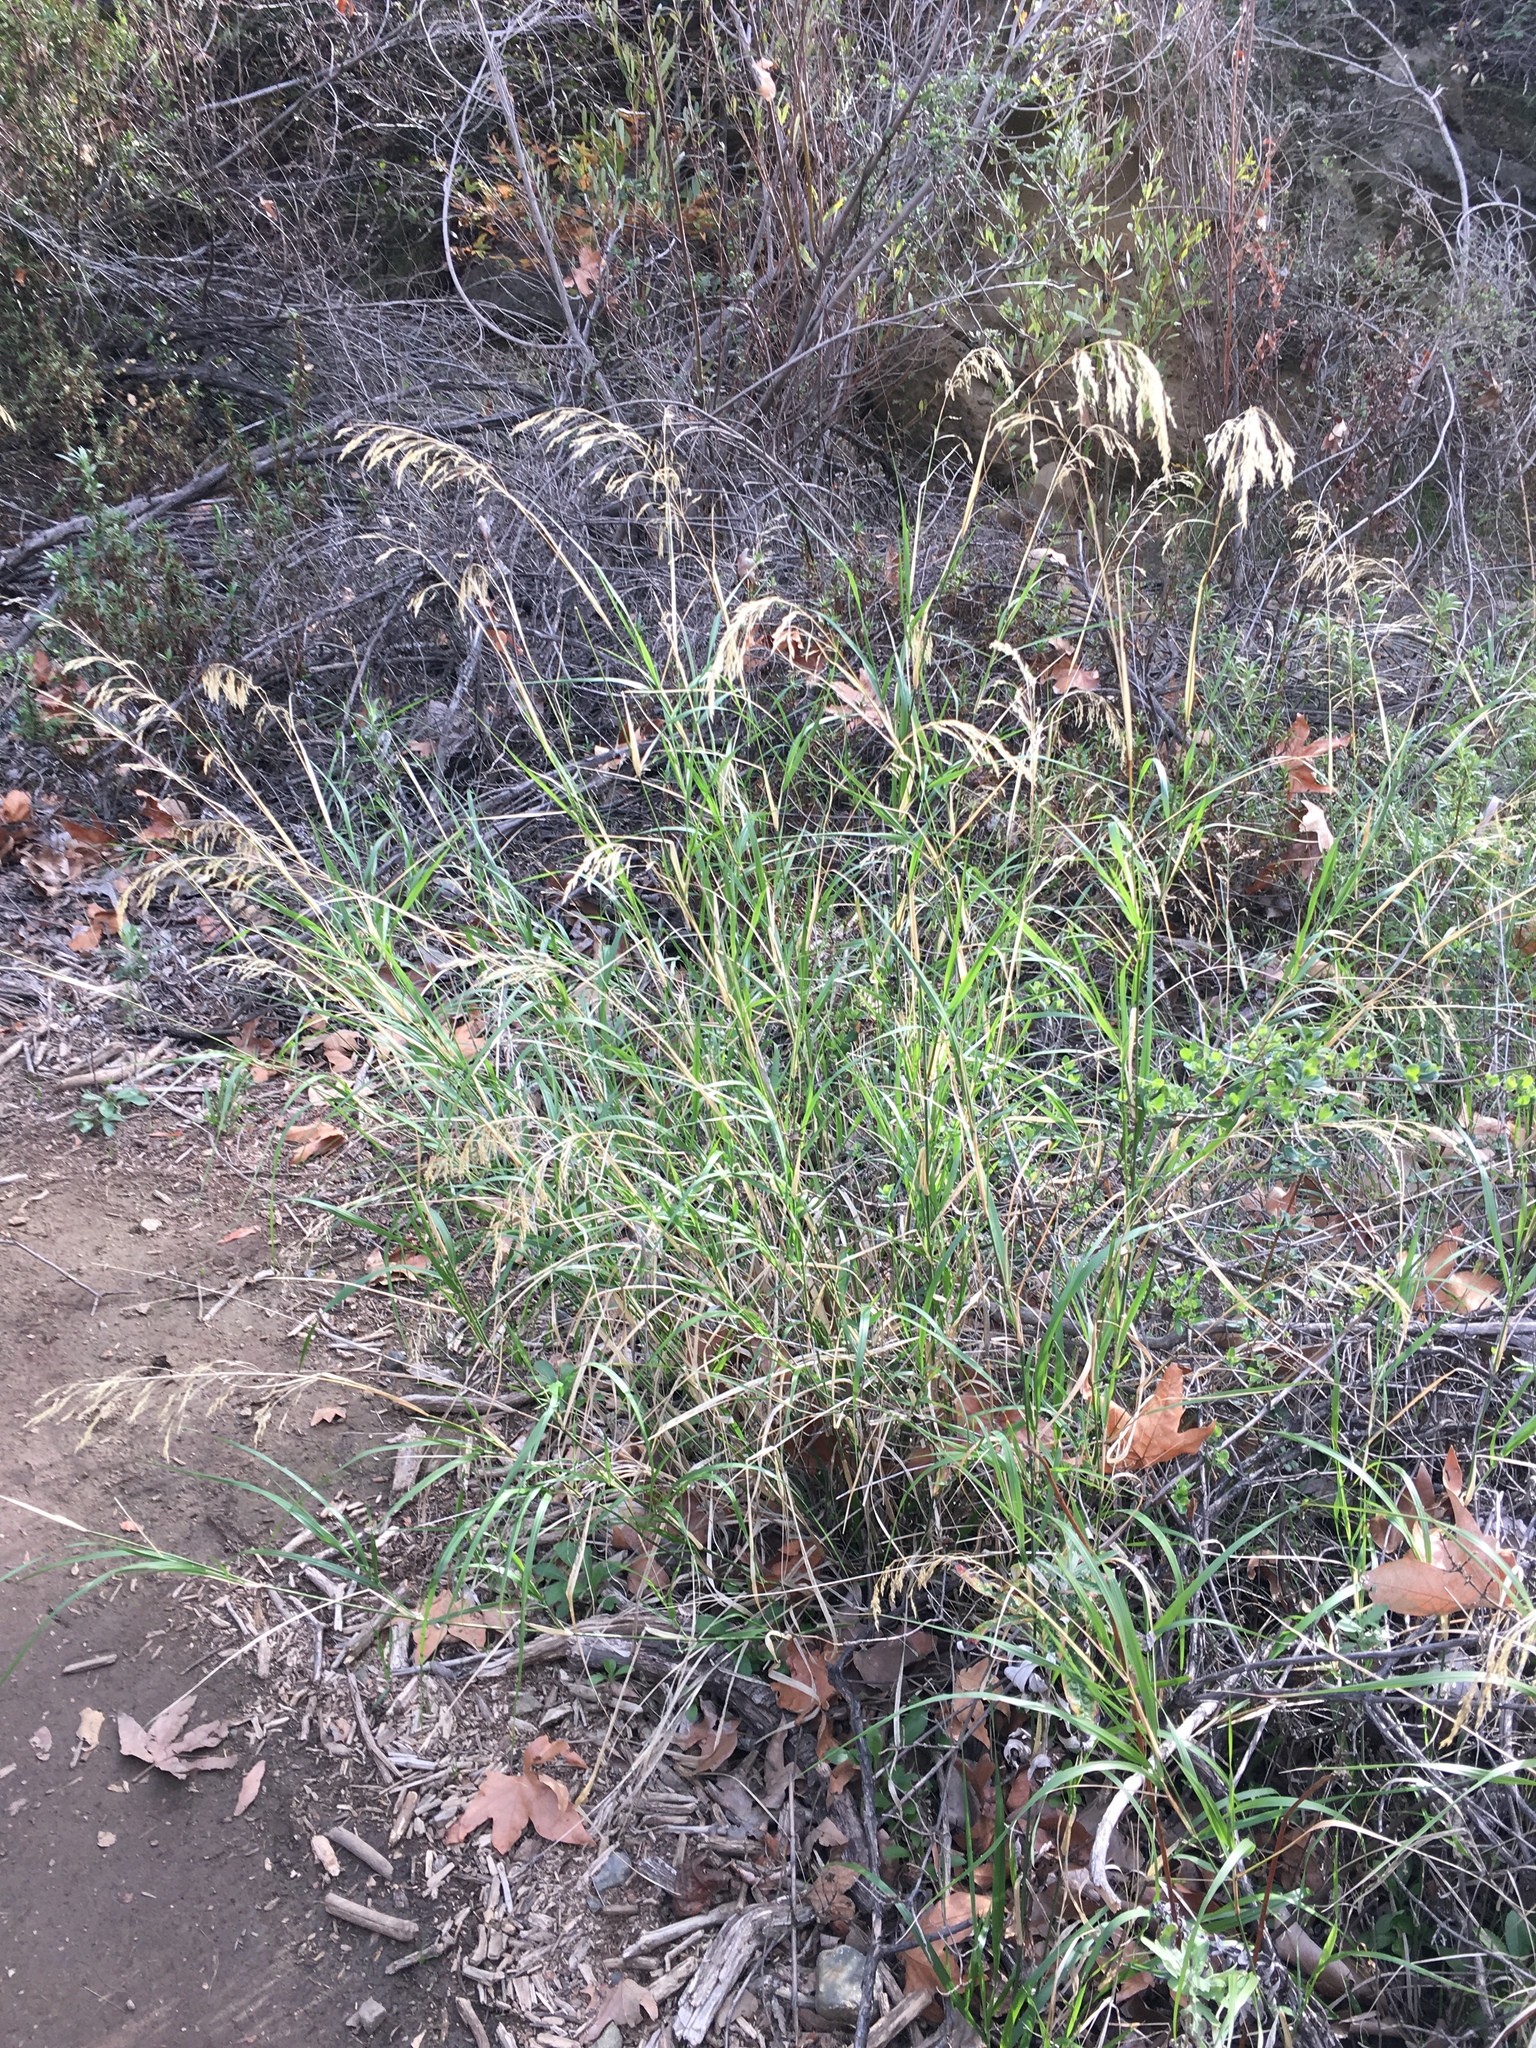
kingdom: Plantae
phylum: Tracheophyta
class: Liliopsida
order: Poales
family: Poaceae
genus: Oloptum
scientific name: Oloptum miliaceum
